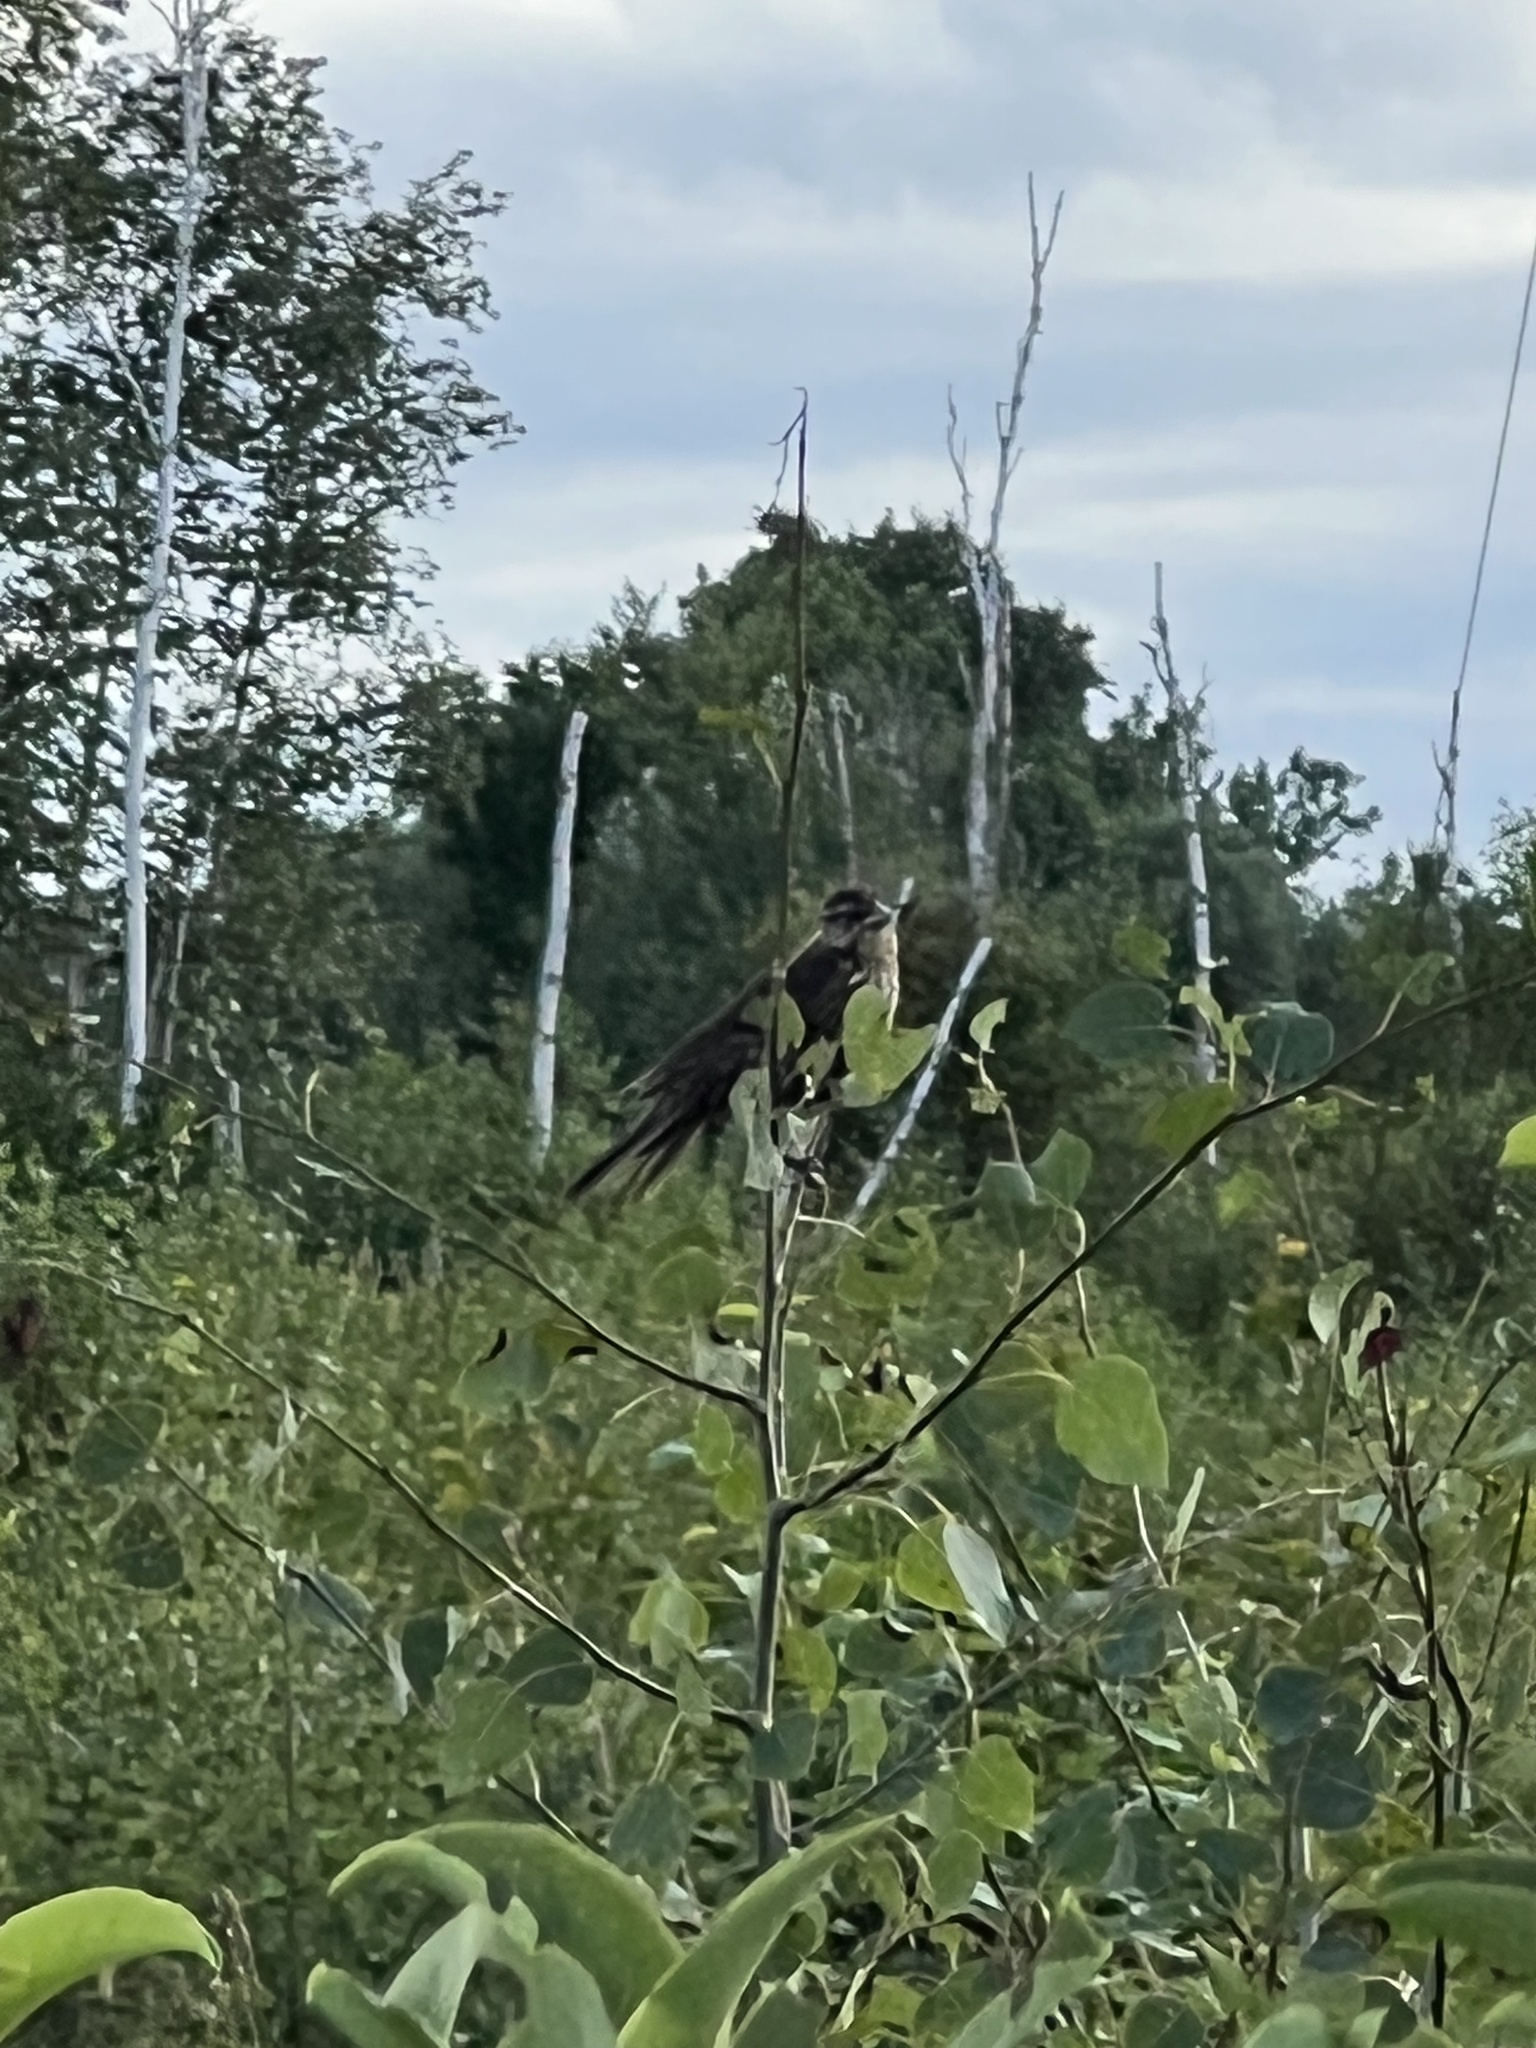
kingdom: Animalia
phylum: Chordata
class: Aves
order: Passeriformes
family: Icteridae
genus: Agelaius
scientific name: Agelaius phoeniceus
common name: Red-winged blackbird
